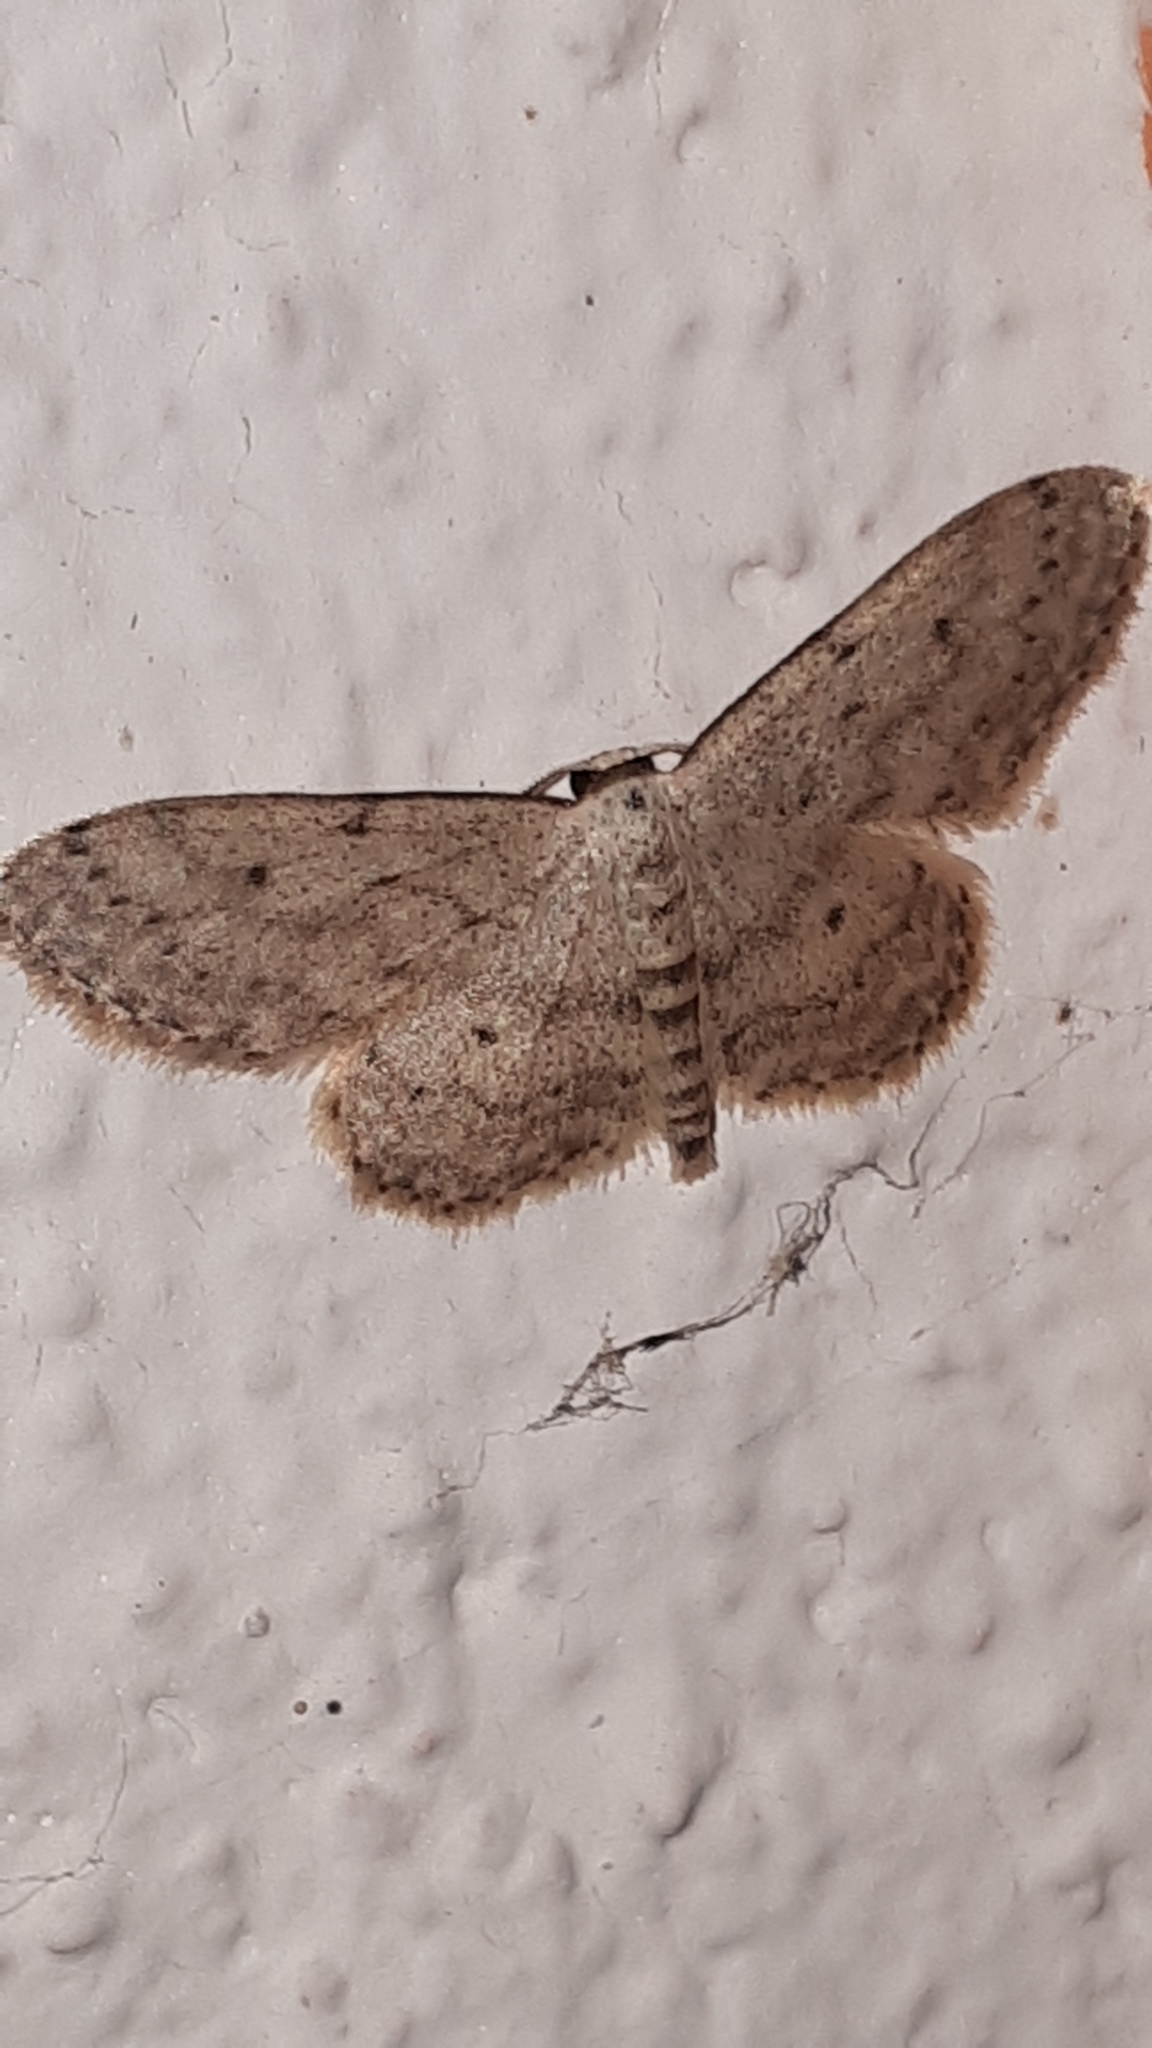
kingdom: Animalia
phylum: Arthropoda
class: Insecta
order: Lepidoptera
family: Geometridae
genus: Idaea
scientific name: Idaea seriata
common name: Small dusty wave
